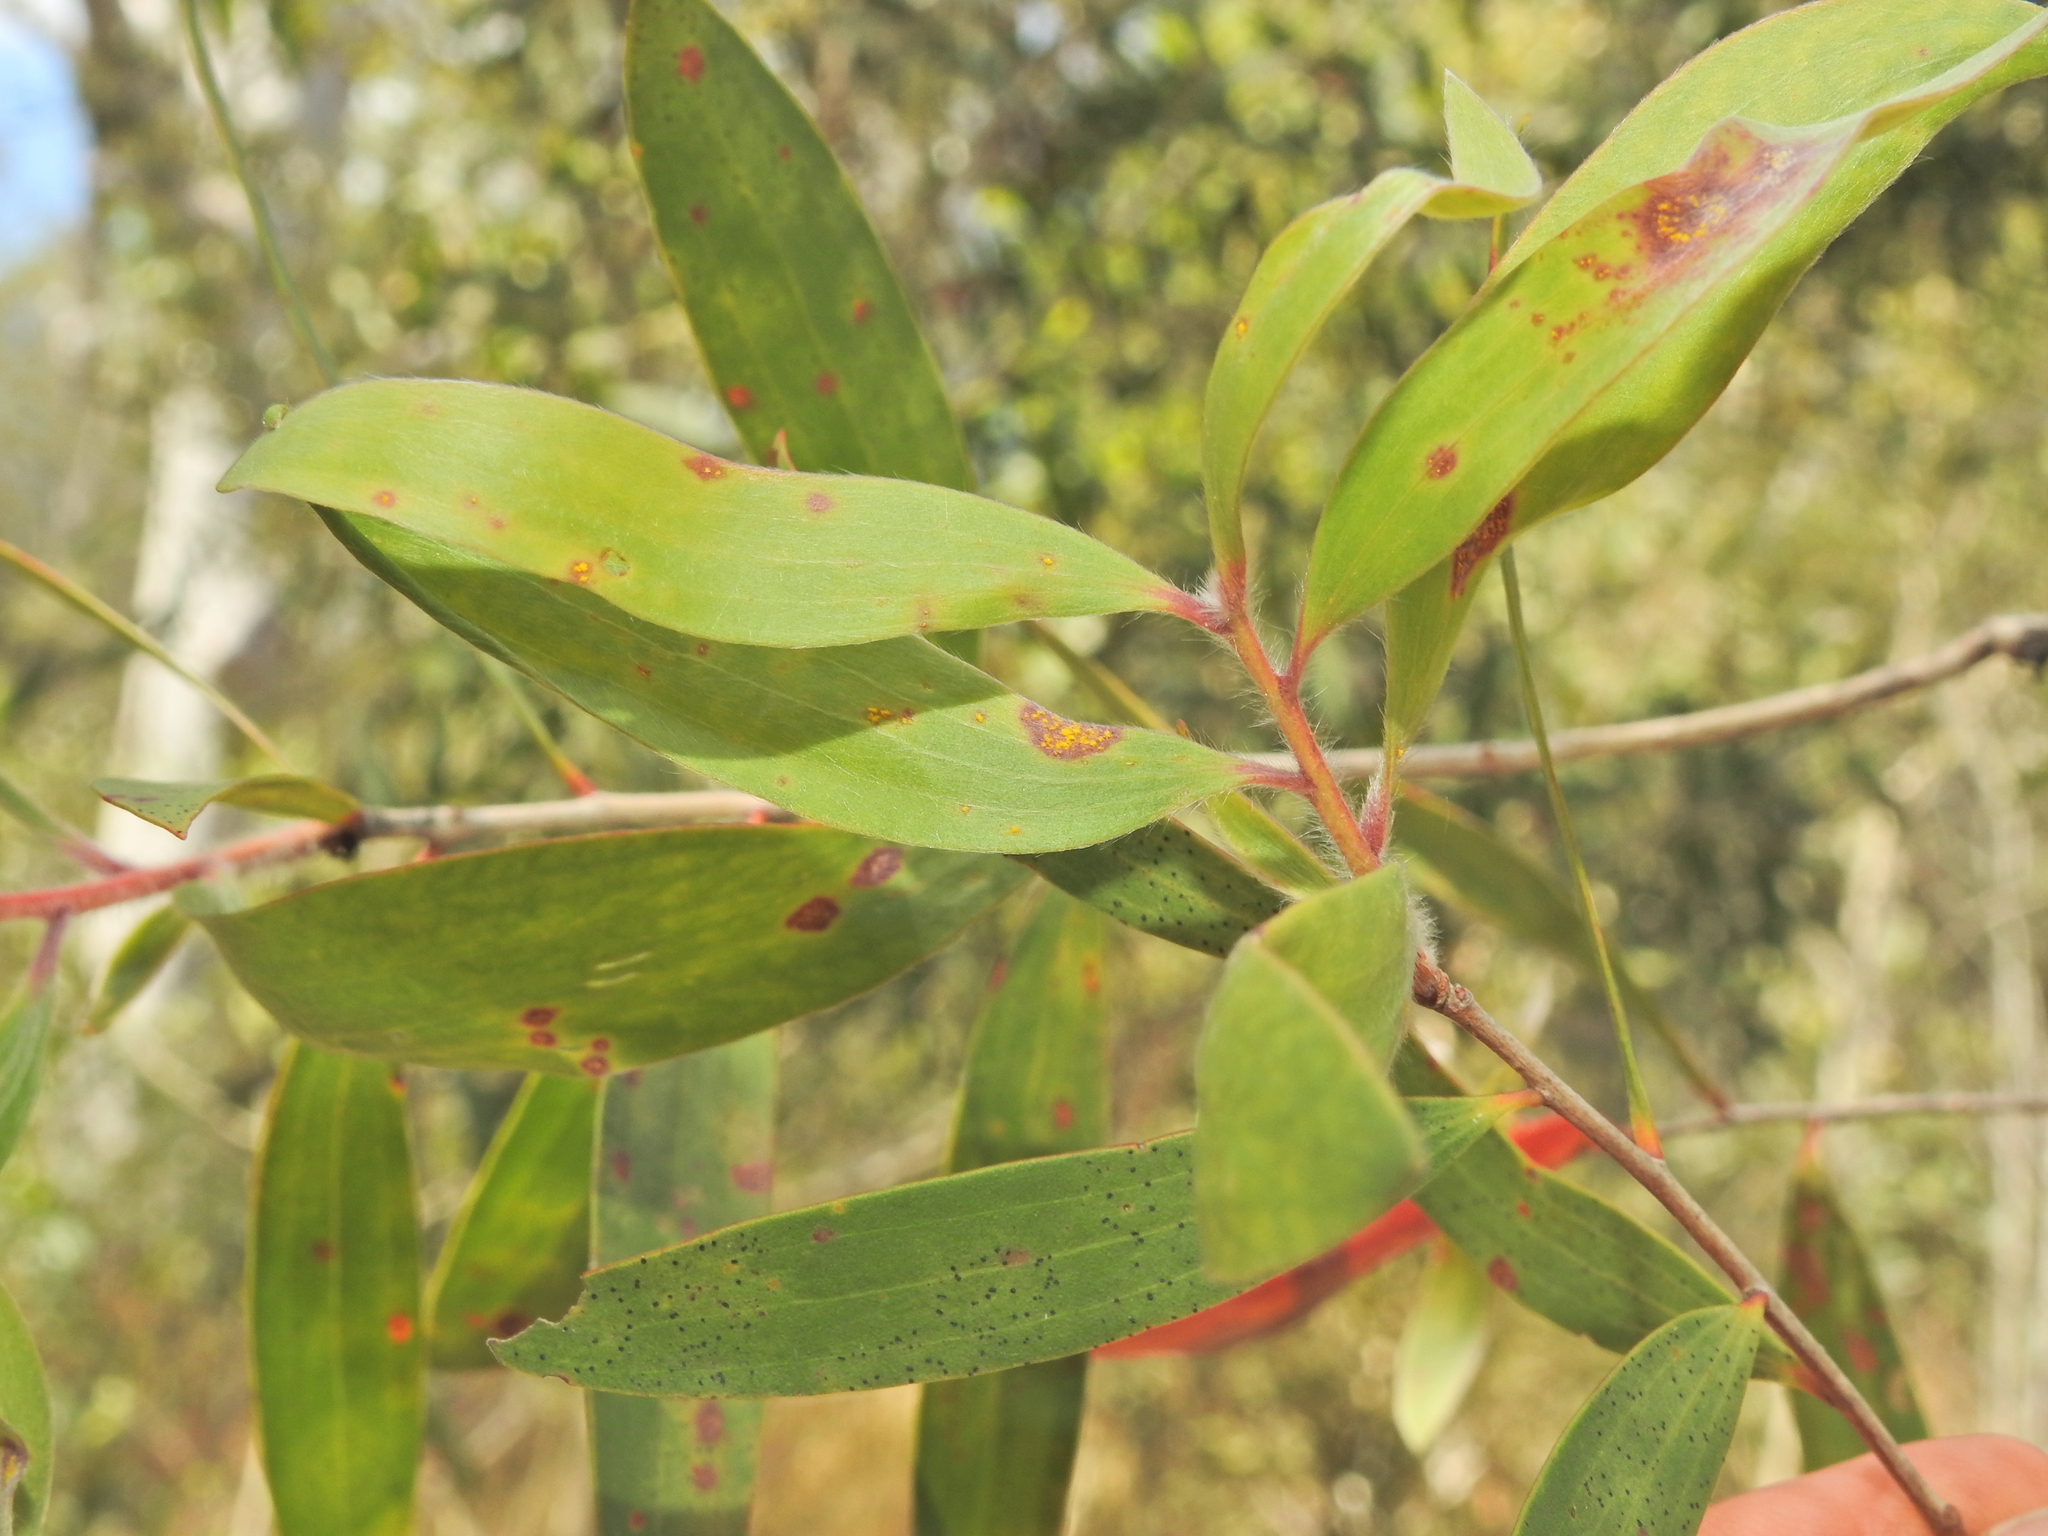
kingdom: Fungi
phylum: Basidiomycota
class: Pucciniomycetes
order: Pucciniales
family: Sphaerophragmiaceae
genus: Austropuccinia
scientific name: Austropuccinia psidii
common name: Myrtle rust
